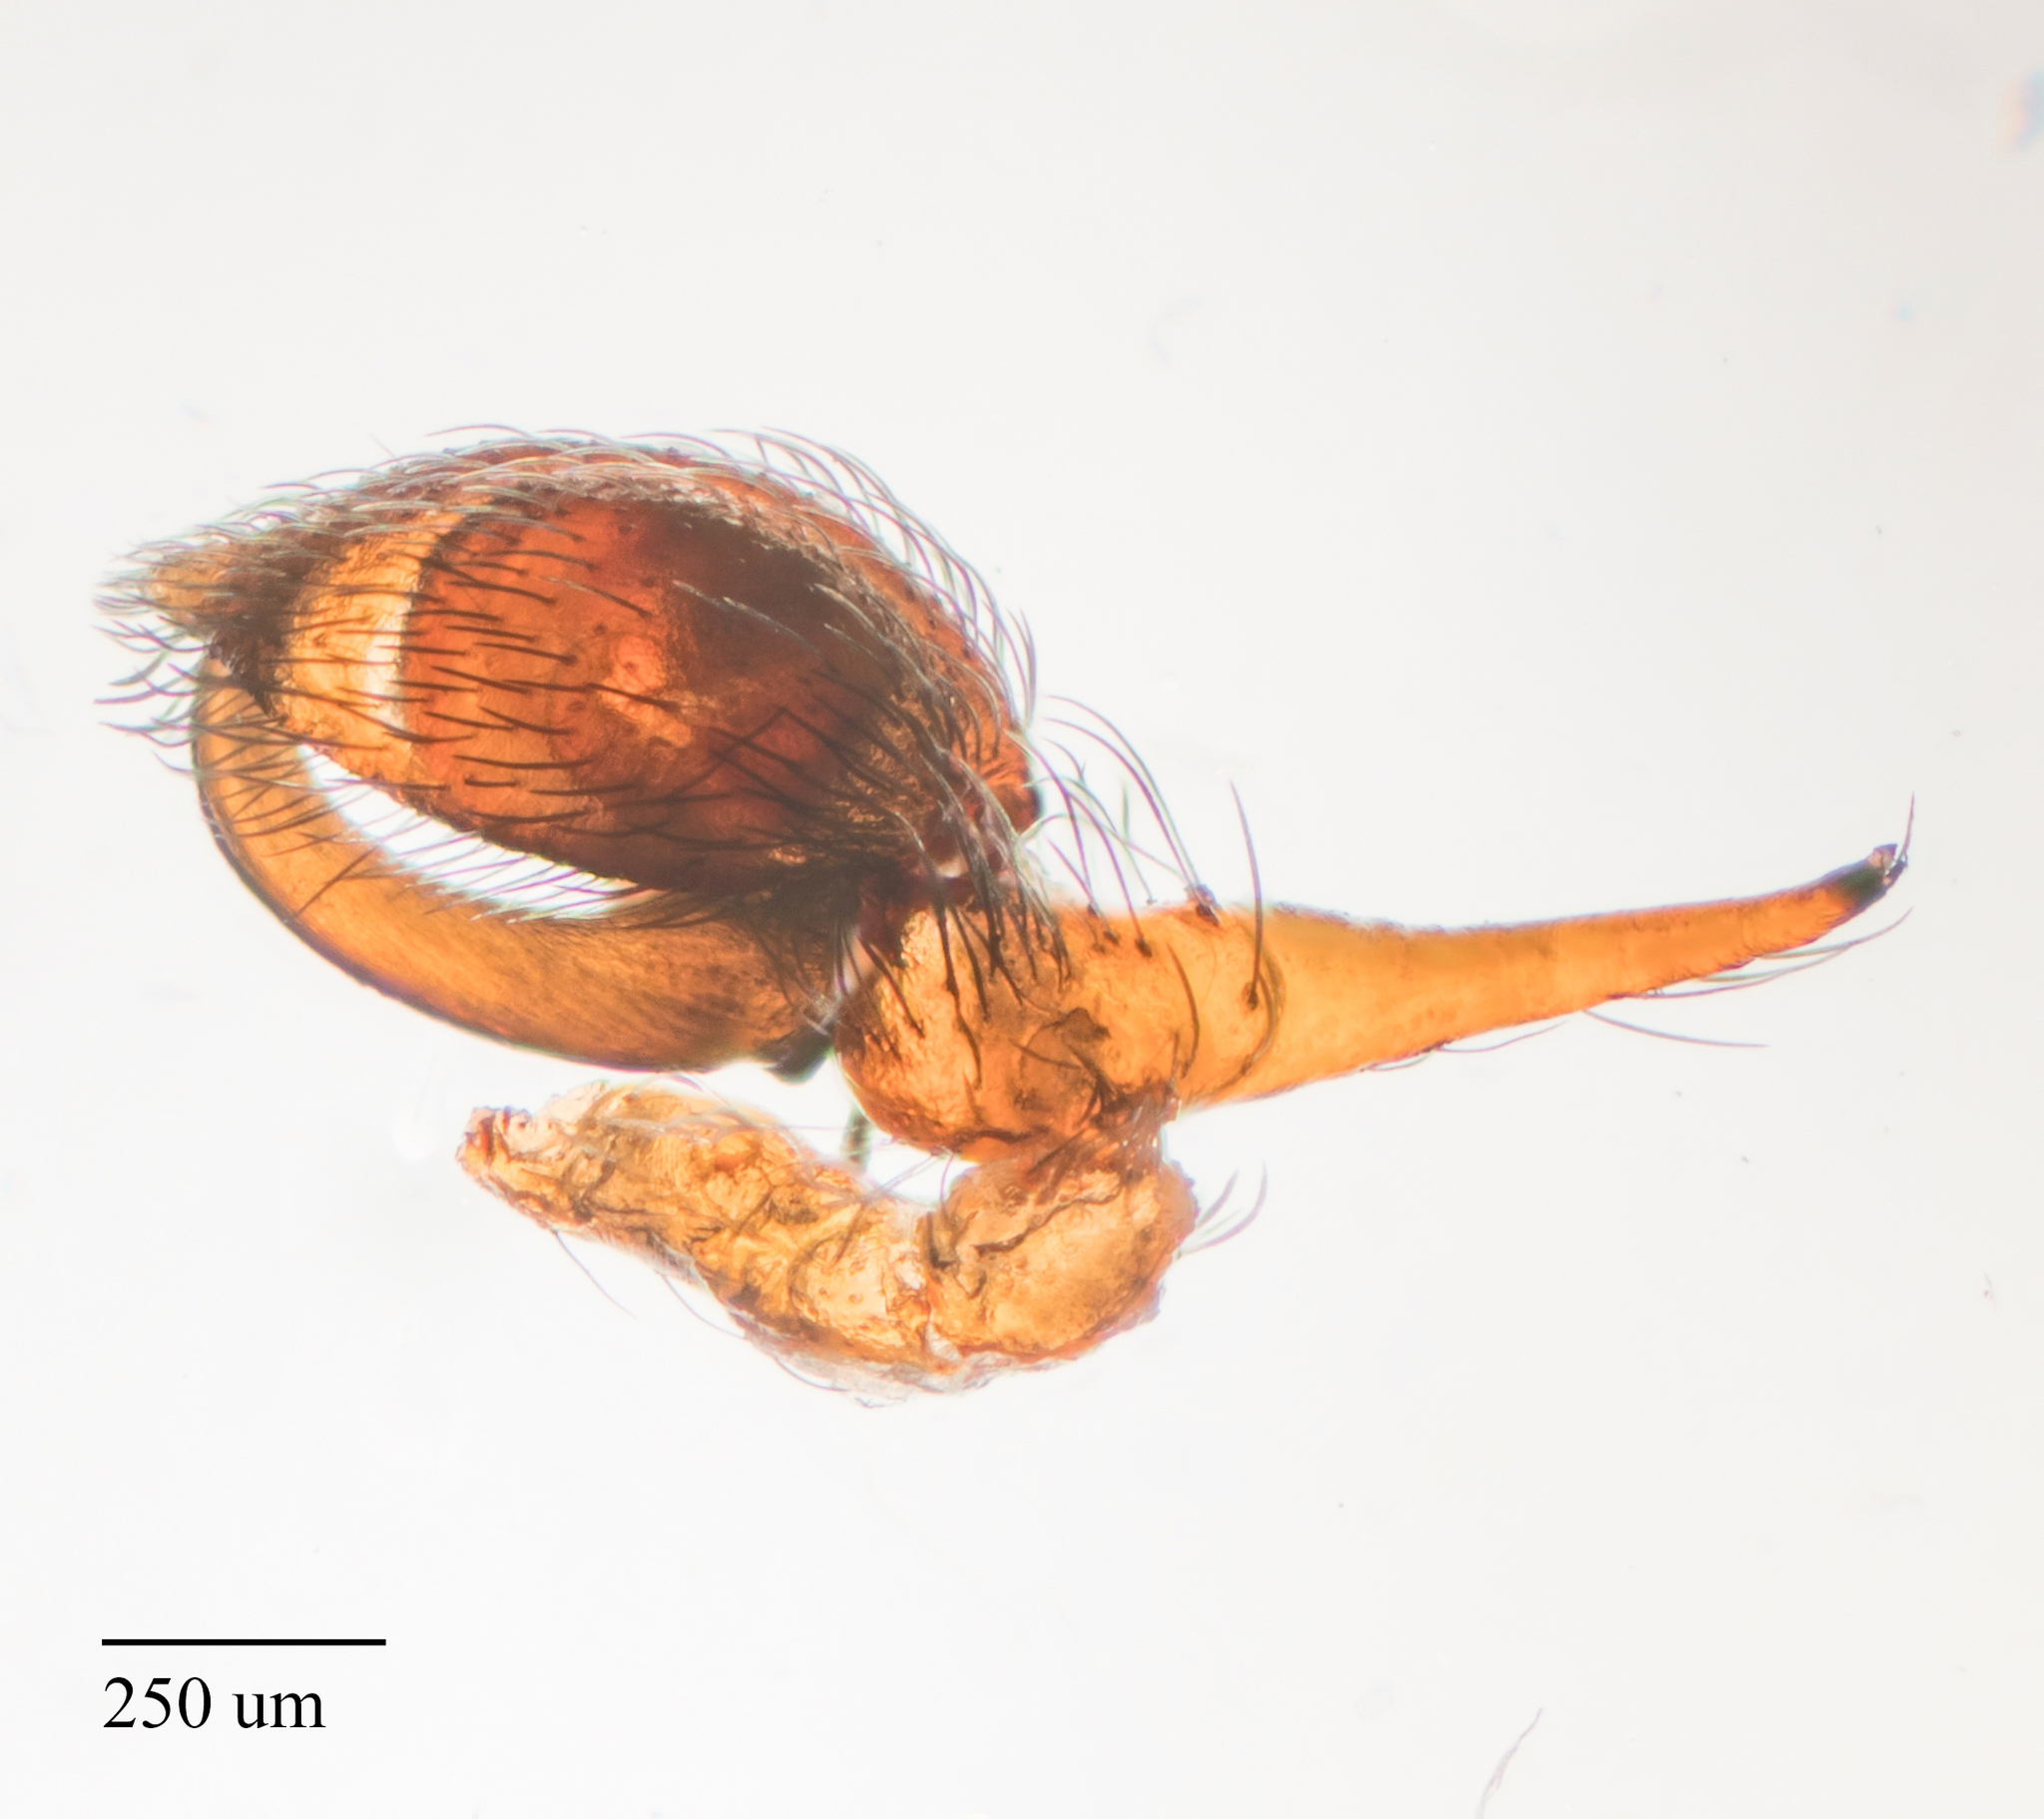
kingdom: Animalia
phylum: Arthropoda
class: Arachnida
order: Araneae
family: Dictynidae
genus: Dictyna
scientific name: Dictyna calcarata
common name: Mesh weaver
